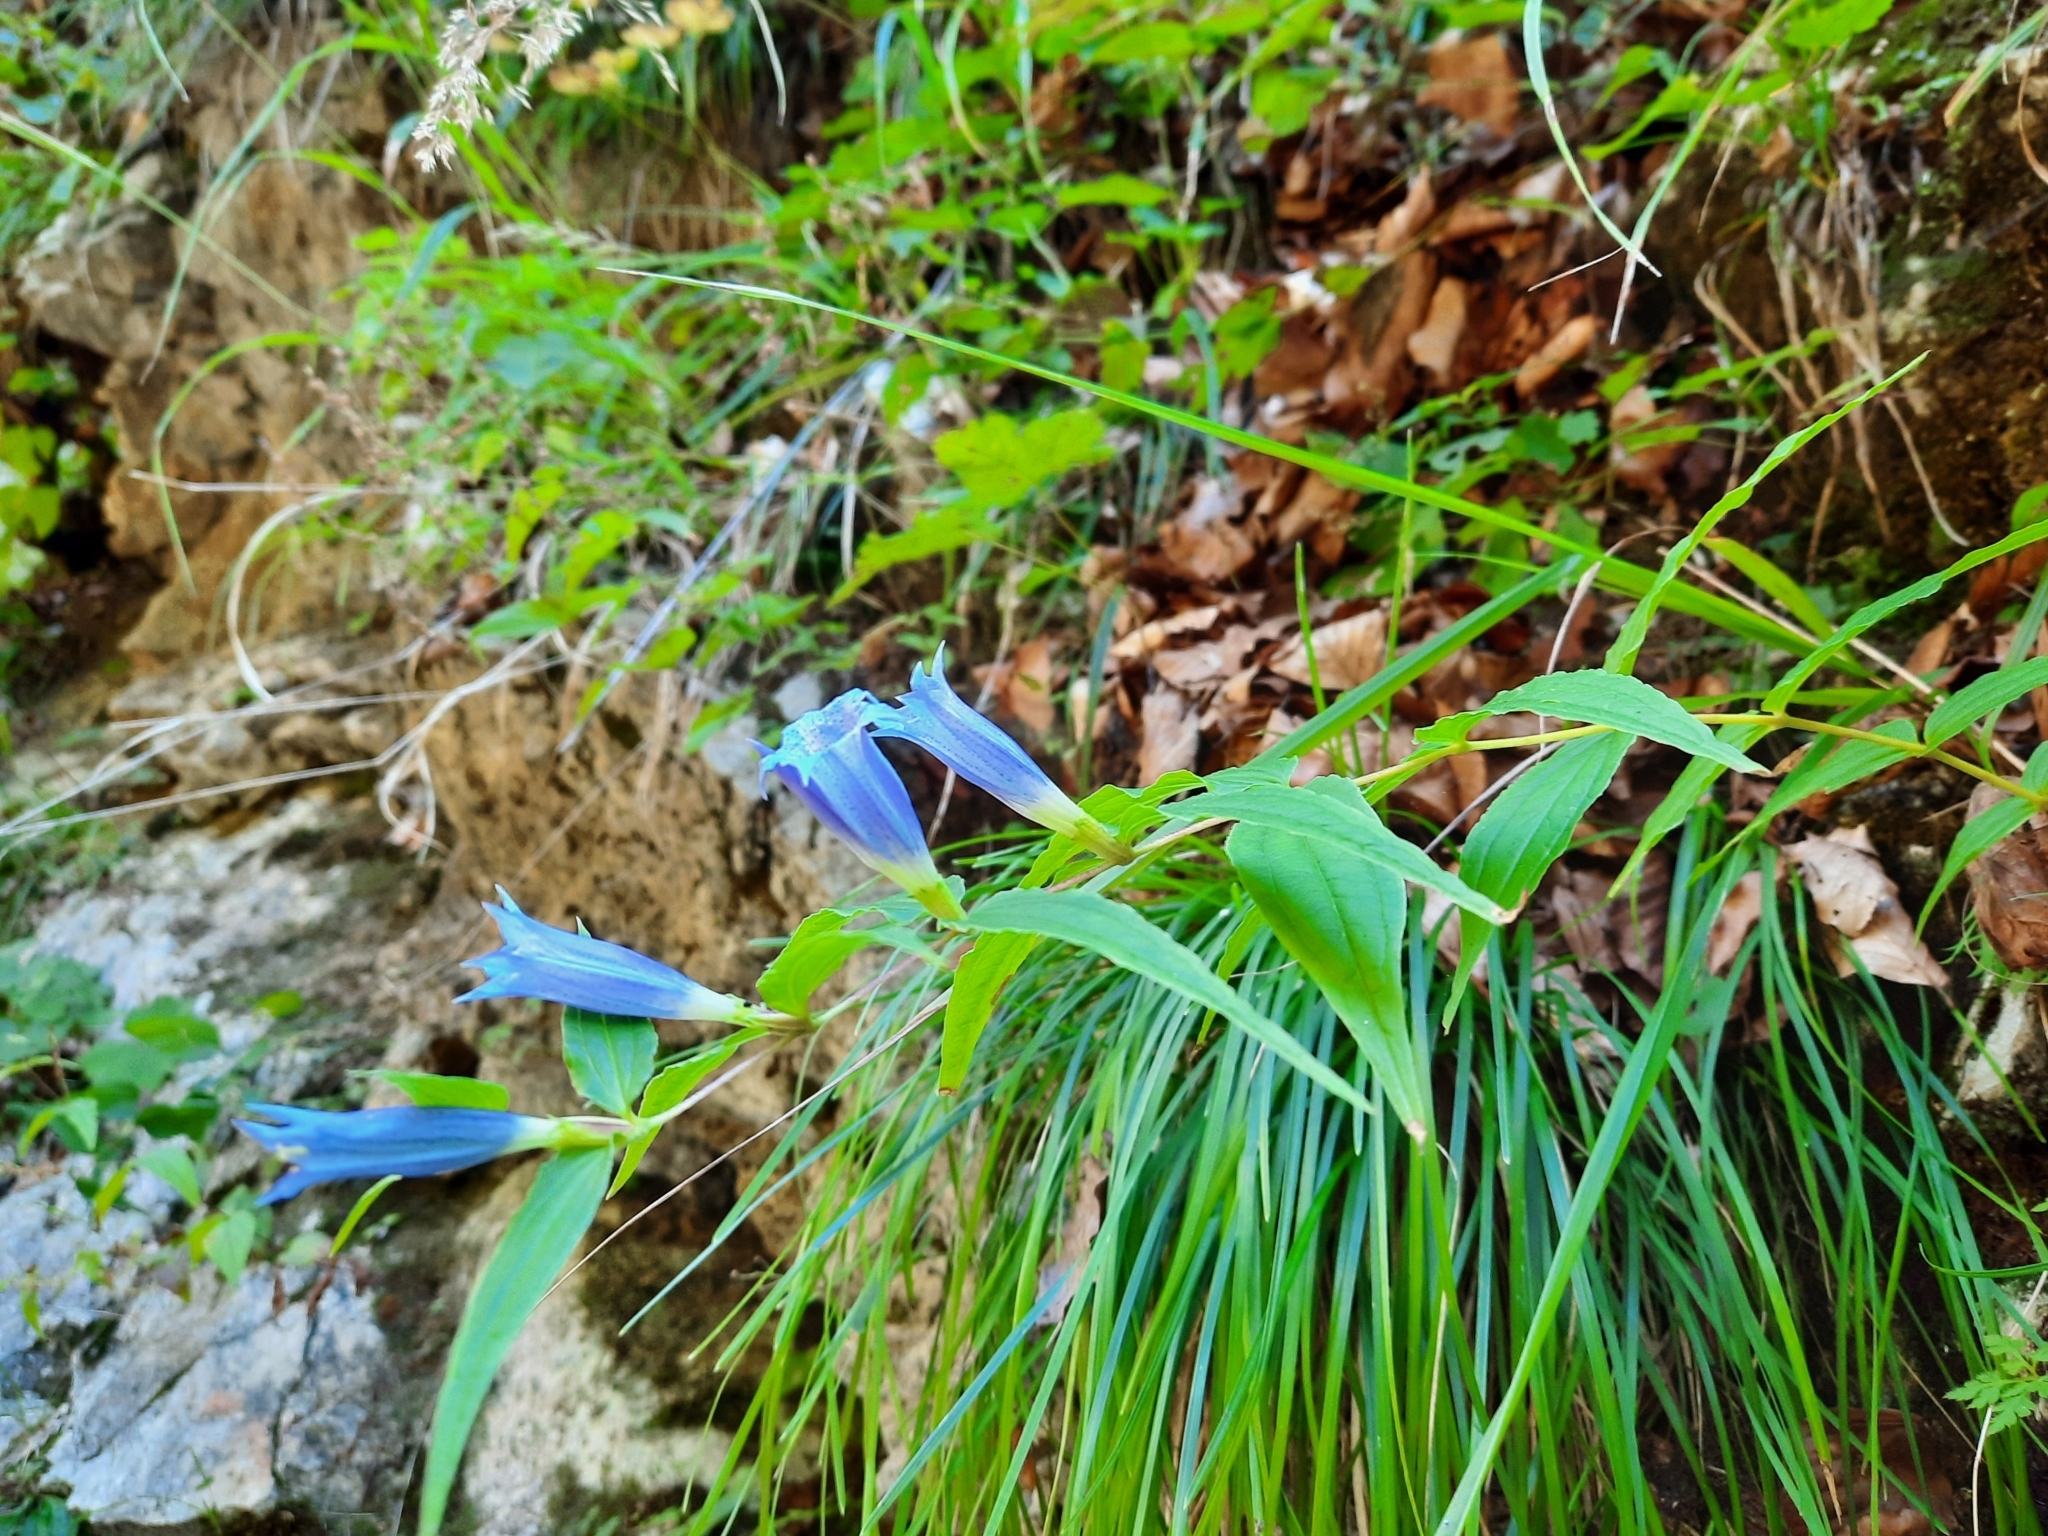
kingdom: Plantae
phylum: Tracheophyta
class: Magnoliopsida
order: Gentianales
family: Gentianaceae
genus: Gentiana
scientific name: Gentiana asclepiadea
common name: Willow gentian
